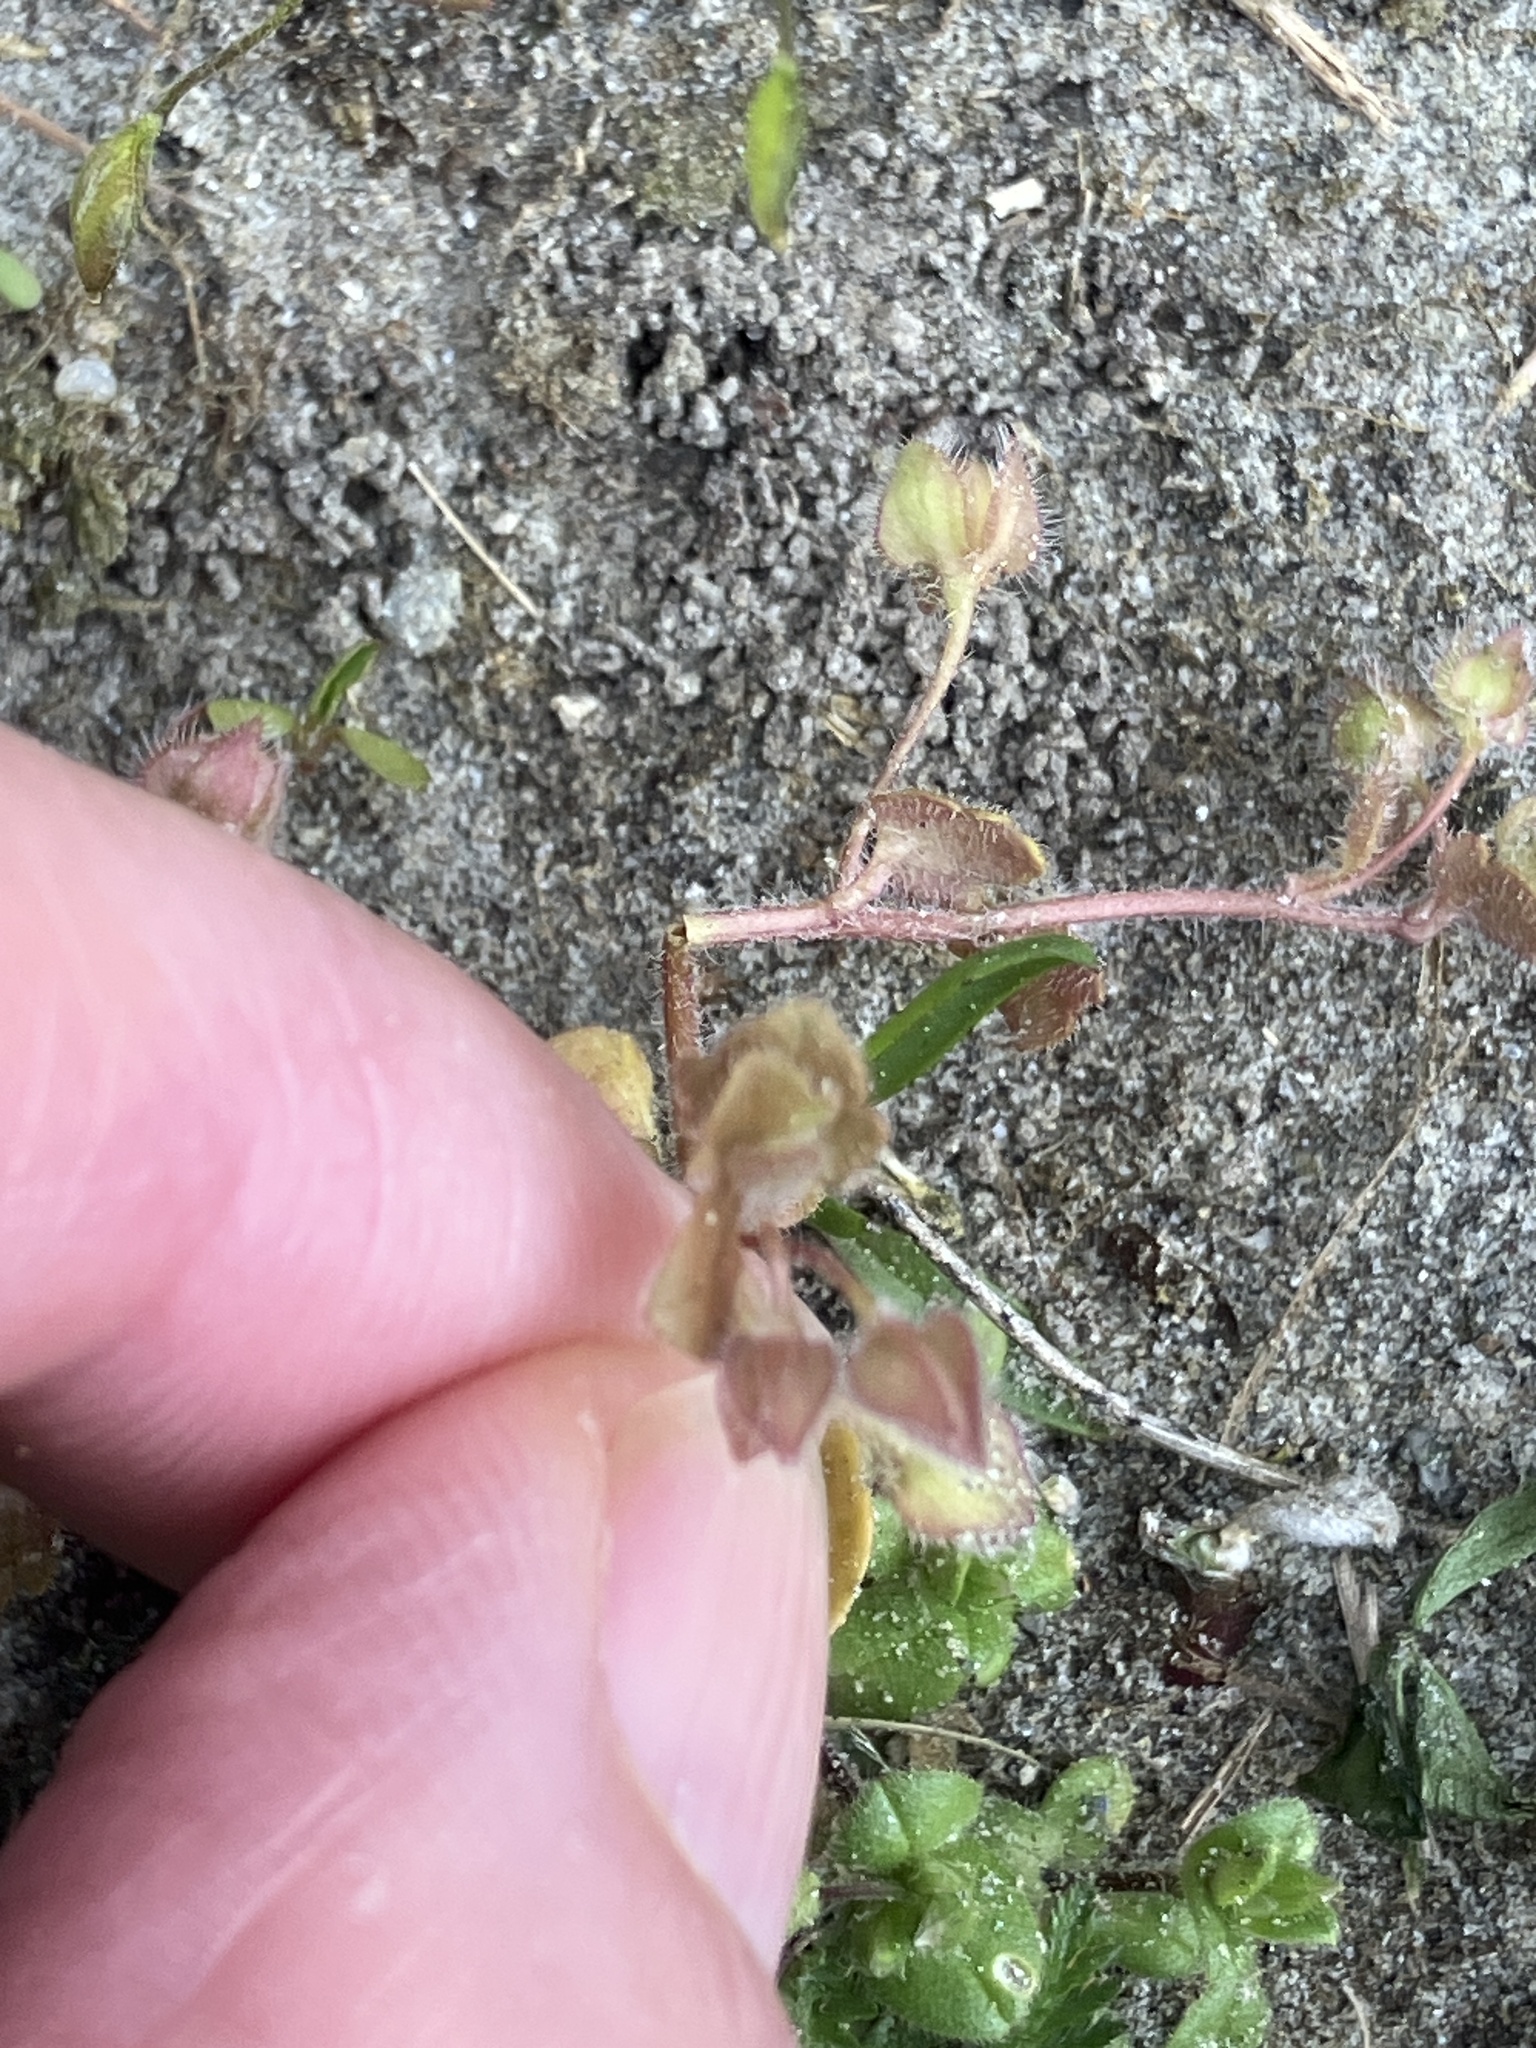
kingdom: Plantae
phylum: Tracheophyta
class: Magnoliopsida
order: Lamiales
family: Plantaginaceae
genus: Veronica
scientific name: Veronica sublobata
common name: False ivy-leaved speedwell
